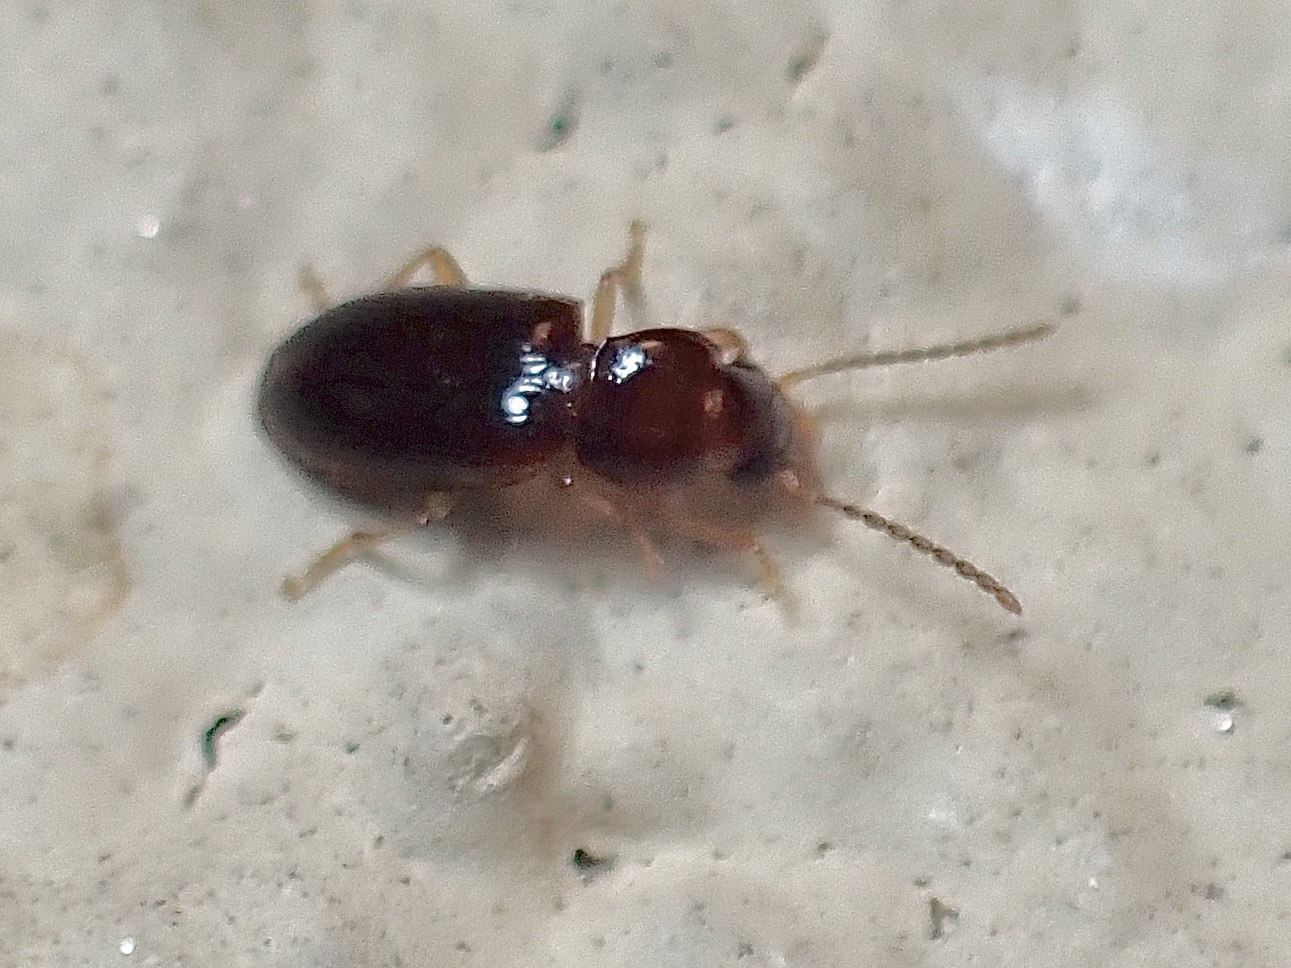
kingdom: Animalia
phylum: Arthropoda
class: Insecta
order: Coleoptera
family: Carabidae
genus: Stenolophus
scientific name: Stenolophus ochropezus
